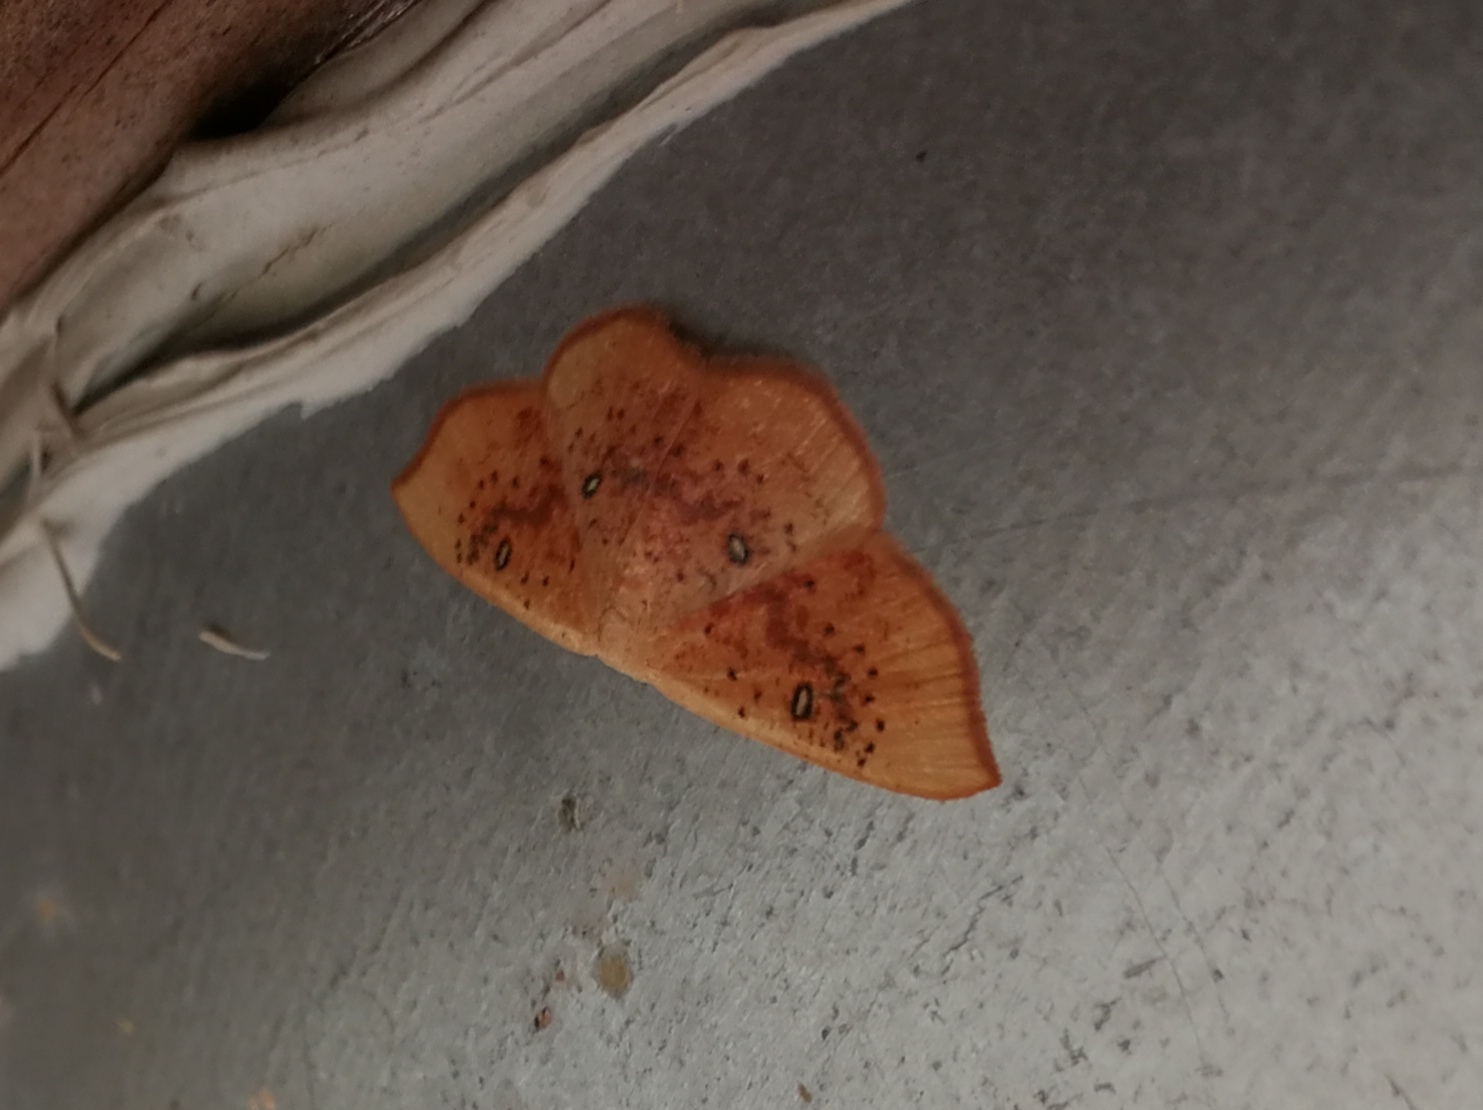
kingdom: Animalia
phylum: Arthropoda
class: Insecta
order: Lepidoptera
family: Geometridae
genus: Cyclophora
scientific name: Cyclophora lennigiaria
